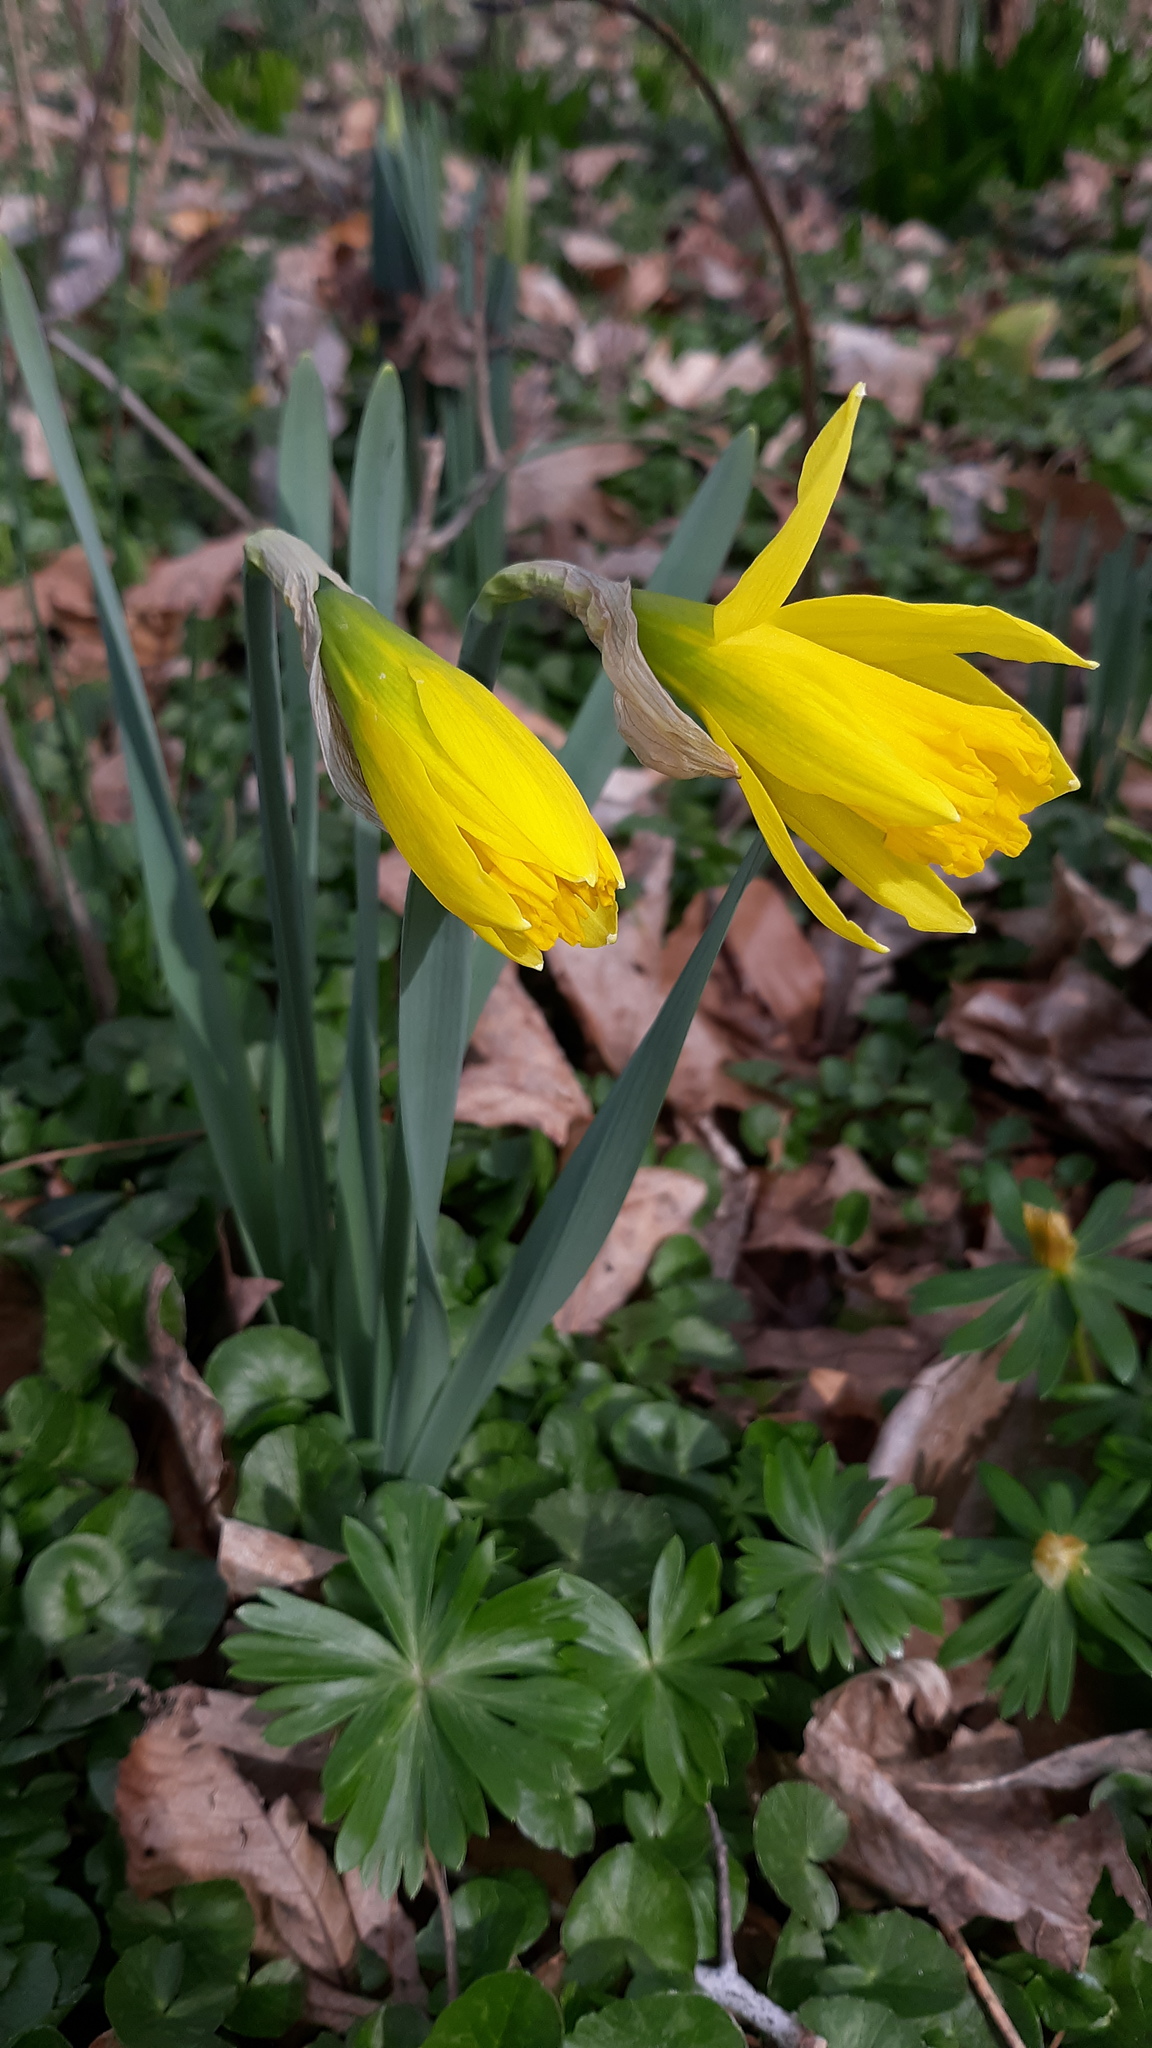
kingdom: Plantae
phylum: Tracheophyta
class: Liliopsida
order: Asparagales
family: Amaryllidaceae
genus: Narcissus
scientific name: Narcissus pseudonarcissus
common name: Daffodil
